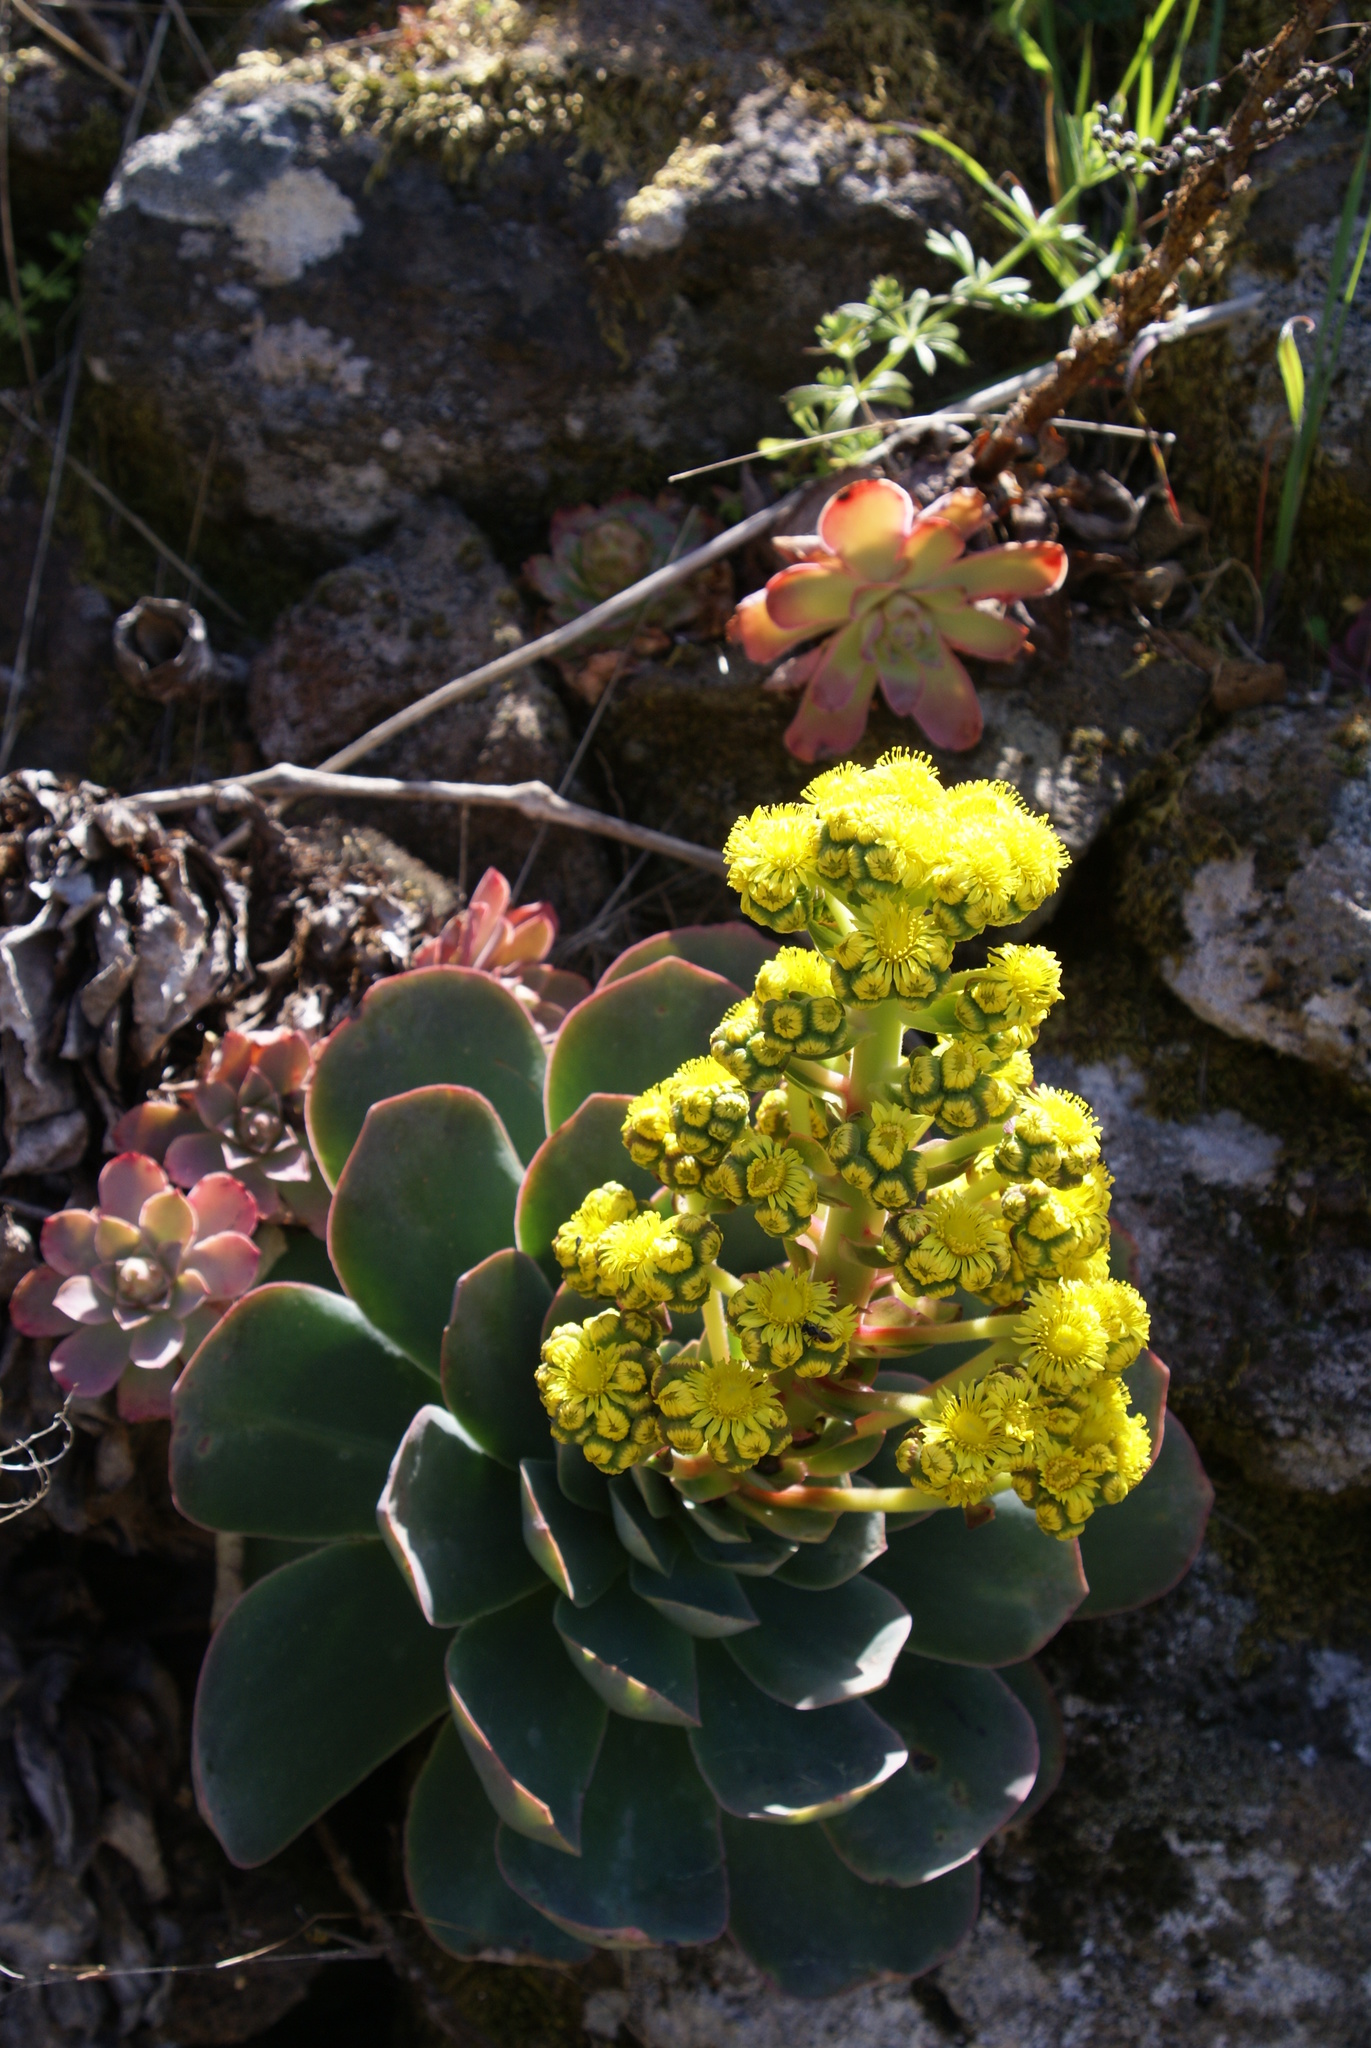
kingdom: Plantae
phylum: Tracheophyta
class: Magnoliopsida
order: Saxifragales
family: Crassulaceae
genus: Aeonium
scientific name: Aeonium diplocyclum
